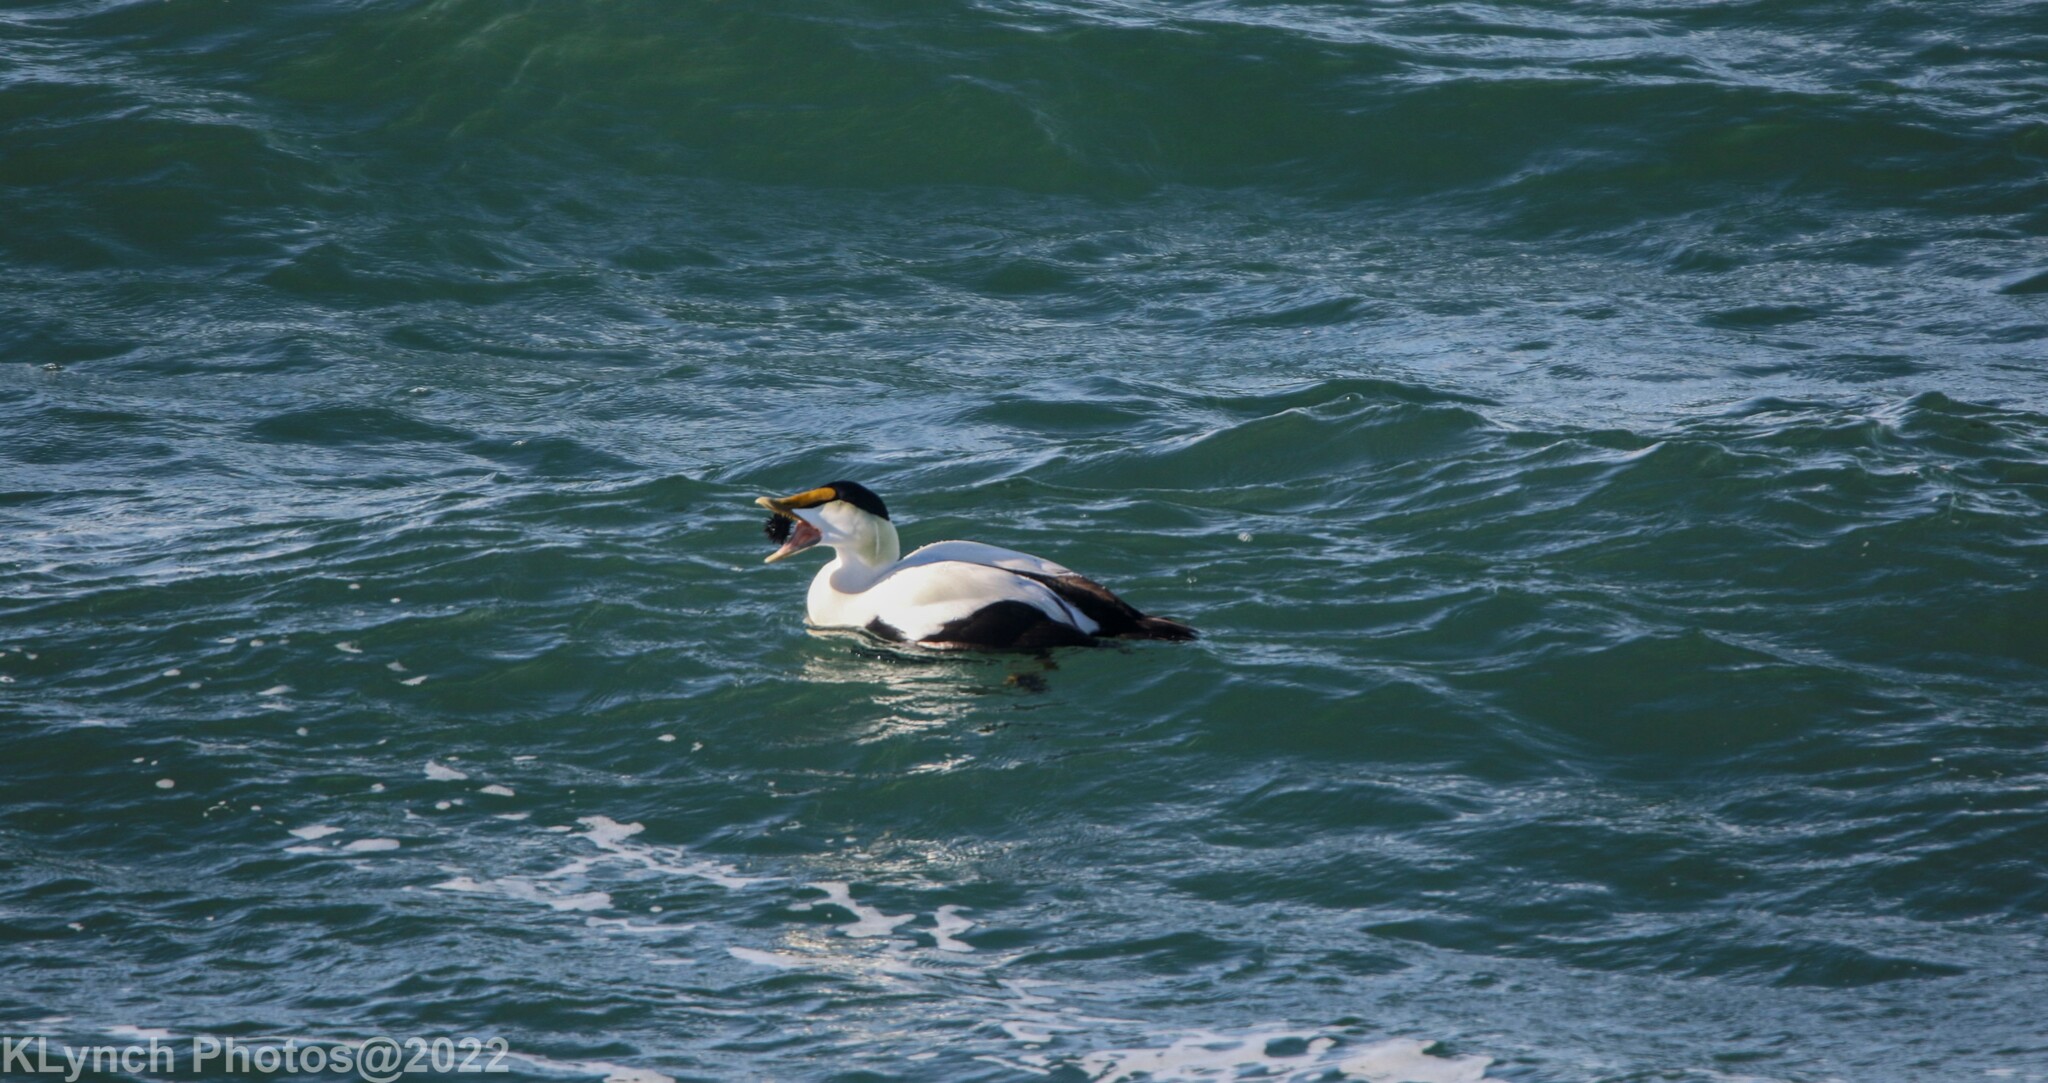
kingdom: Animalia
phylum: Chordata
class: Aves
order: Anseriformes
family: Anatidae
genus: Somateria
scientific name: Somateria mollissima
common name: Common eider
